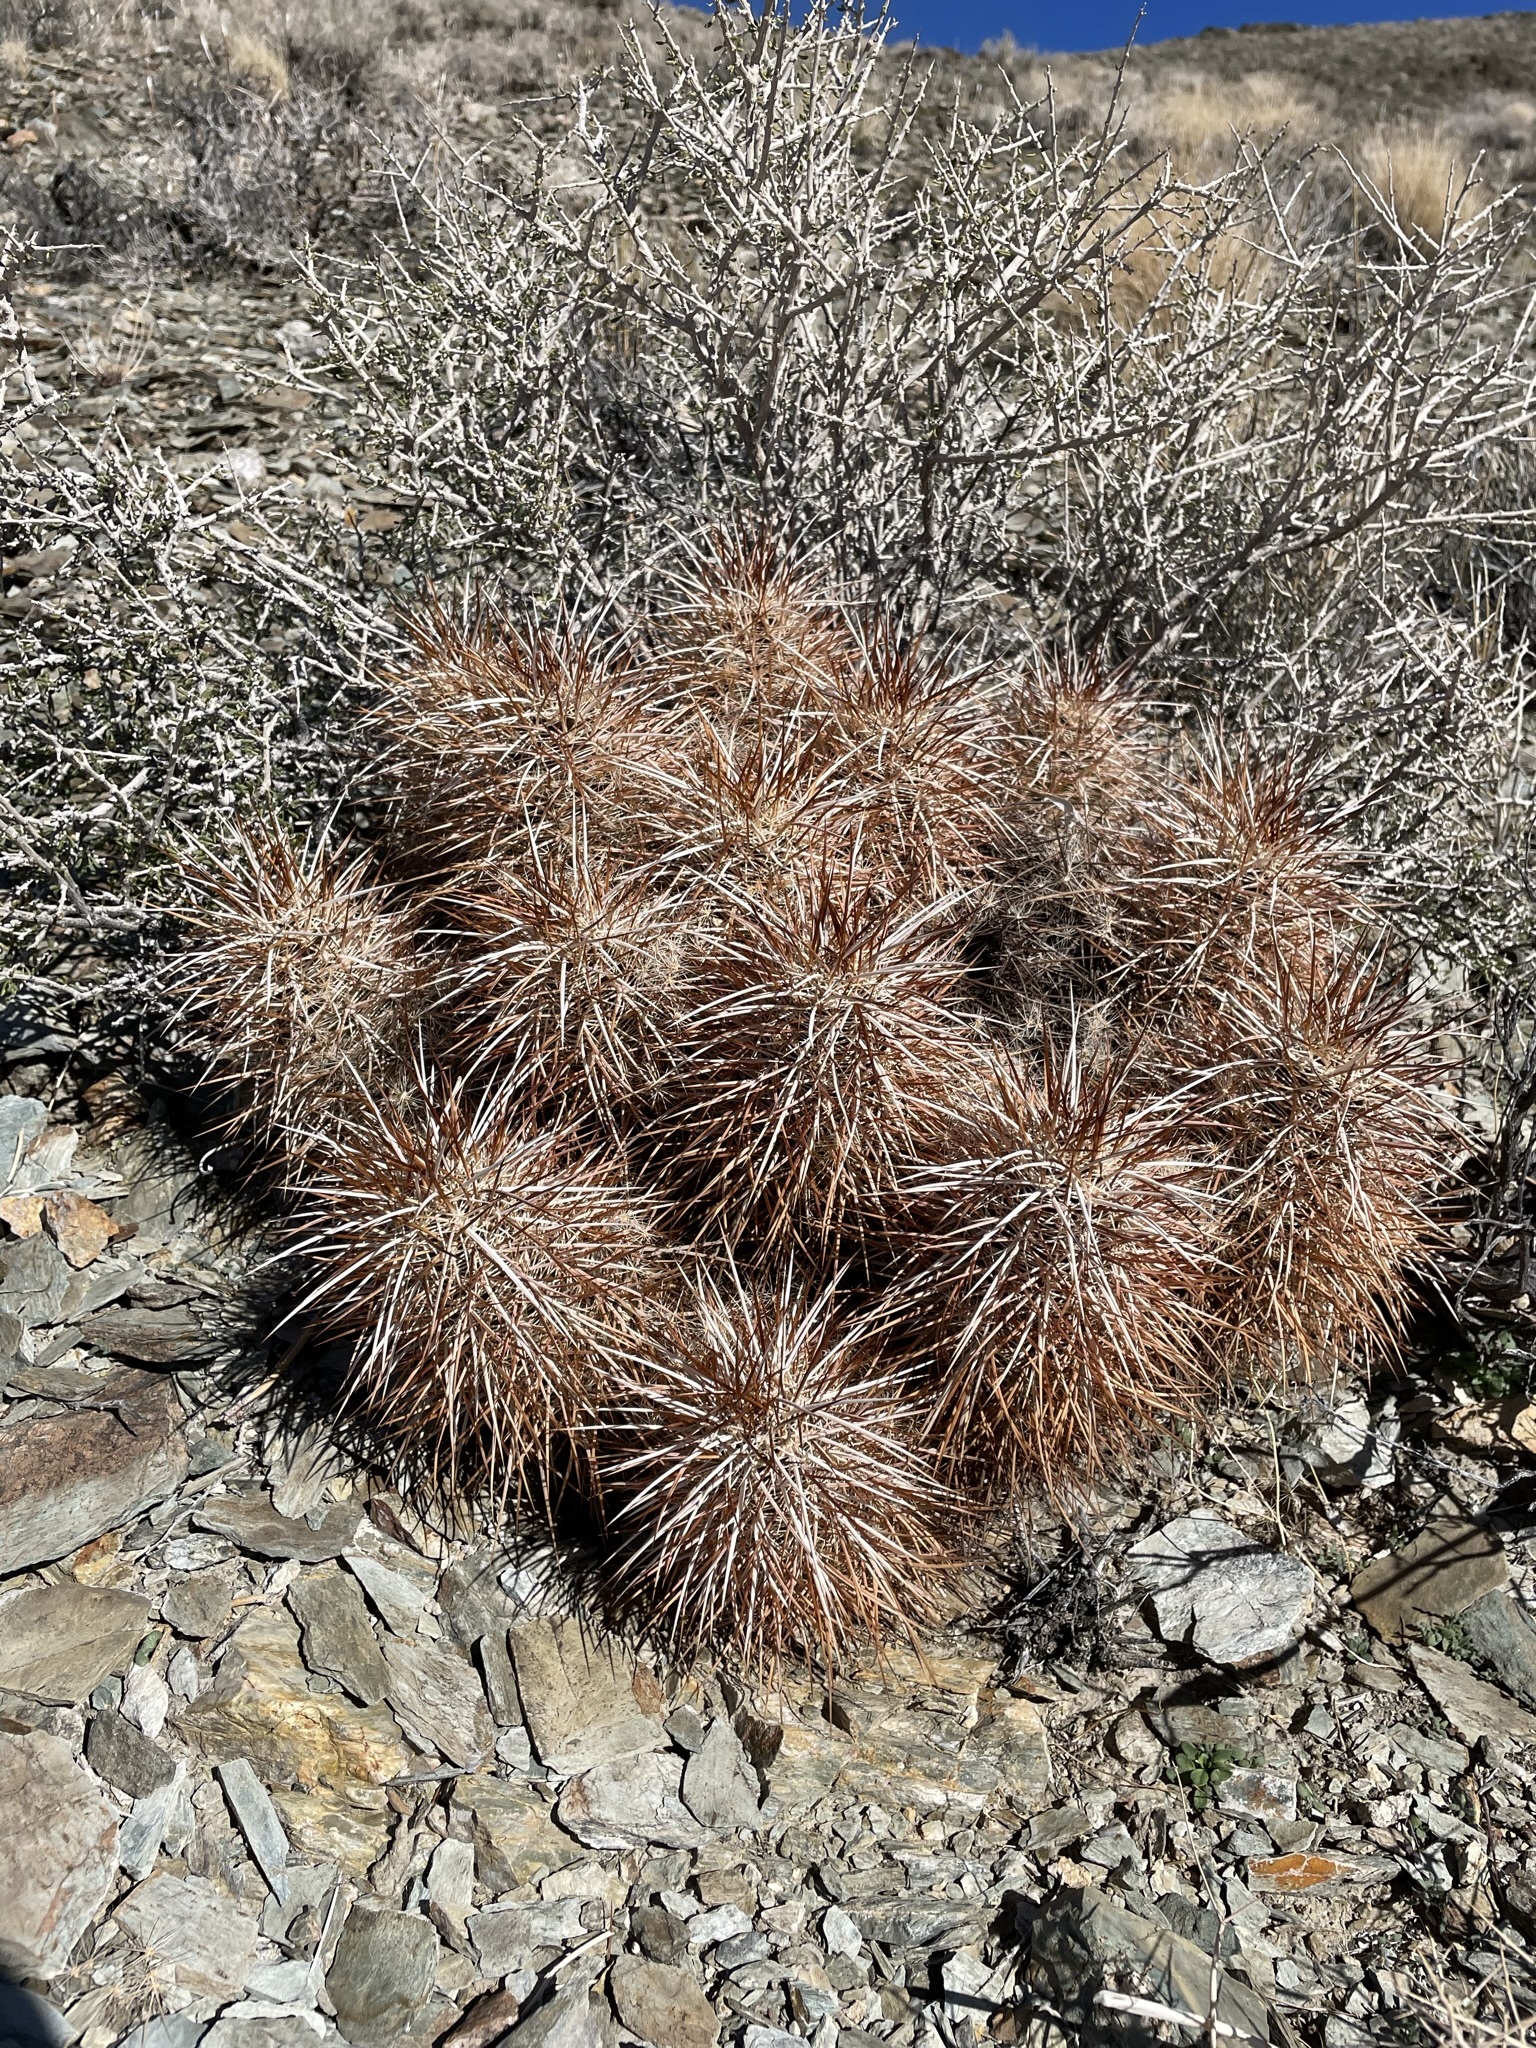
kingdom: Plantae
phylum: Tracheophyta
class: Magnoliopsida
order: Caryophyllales
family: Cactaceae
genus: Echinocereus
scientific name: Echinocereus engelmannii
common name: Engelmann's hedgehog cactus
